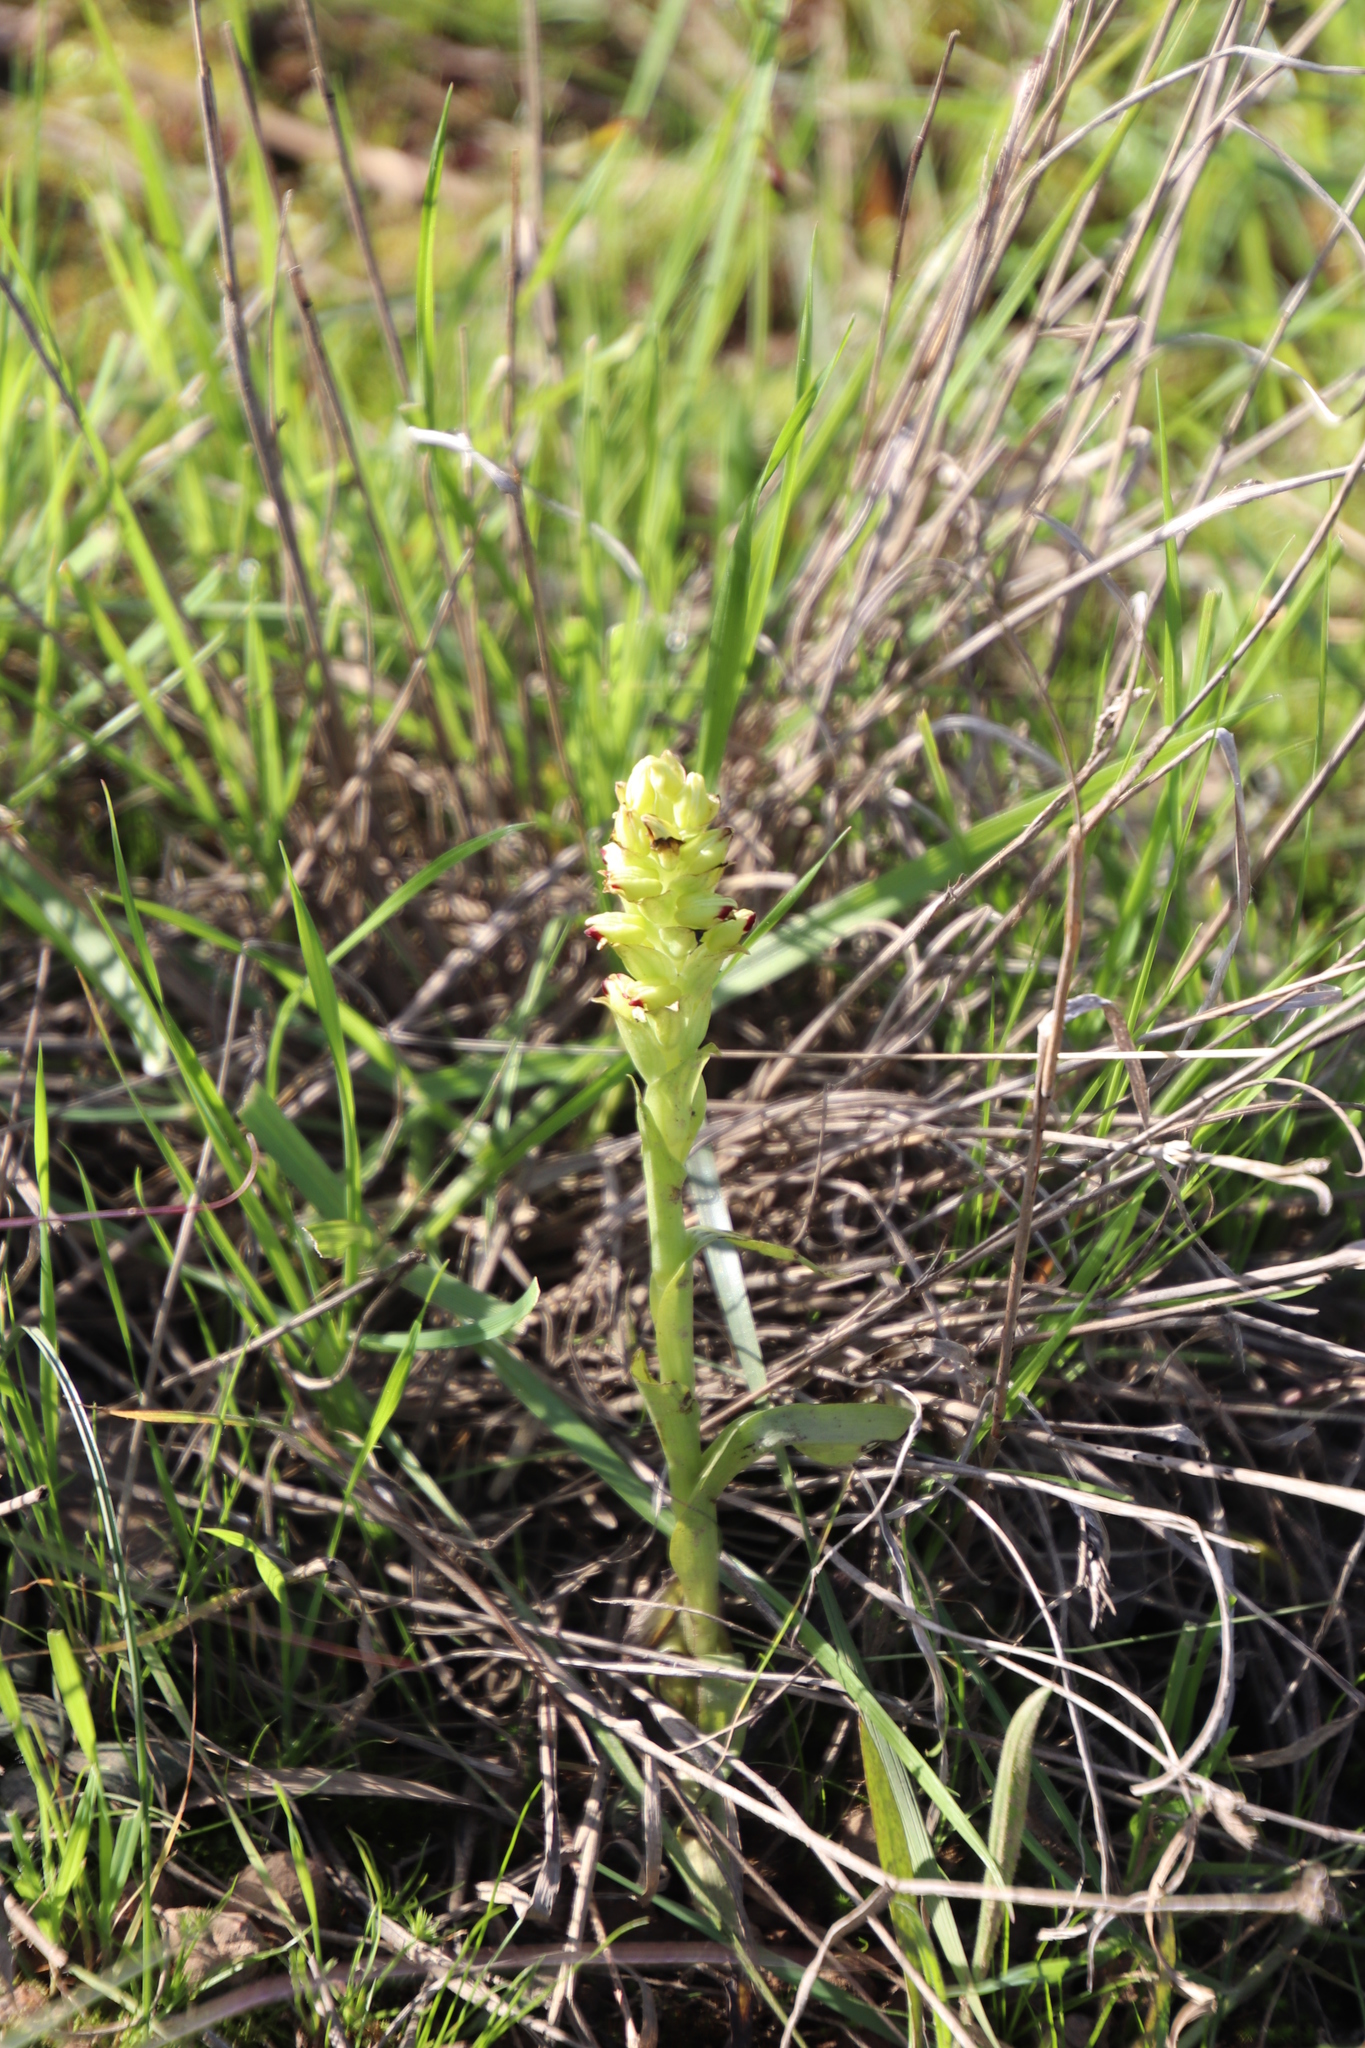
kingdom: Plantae
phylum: Tracheophyta
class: Liliopsida
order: Asparagales
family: Orchidaceae
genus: Corycium
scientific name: Corycium orobanchoides
